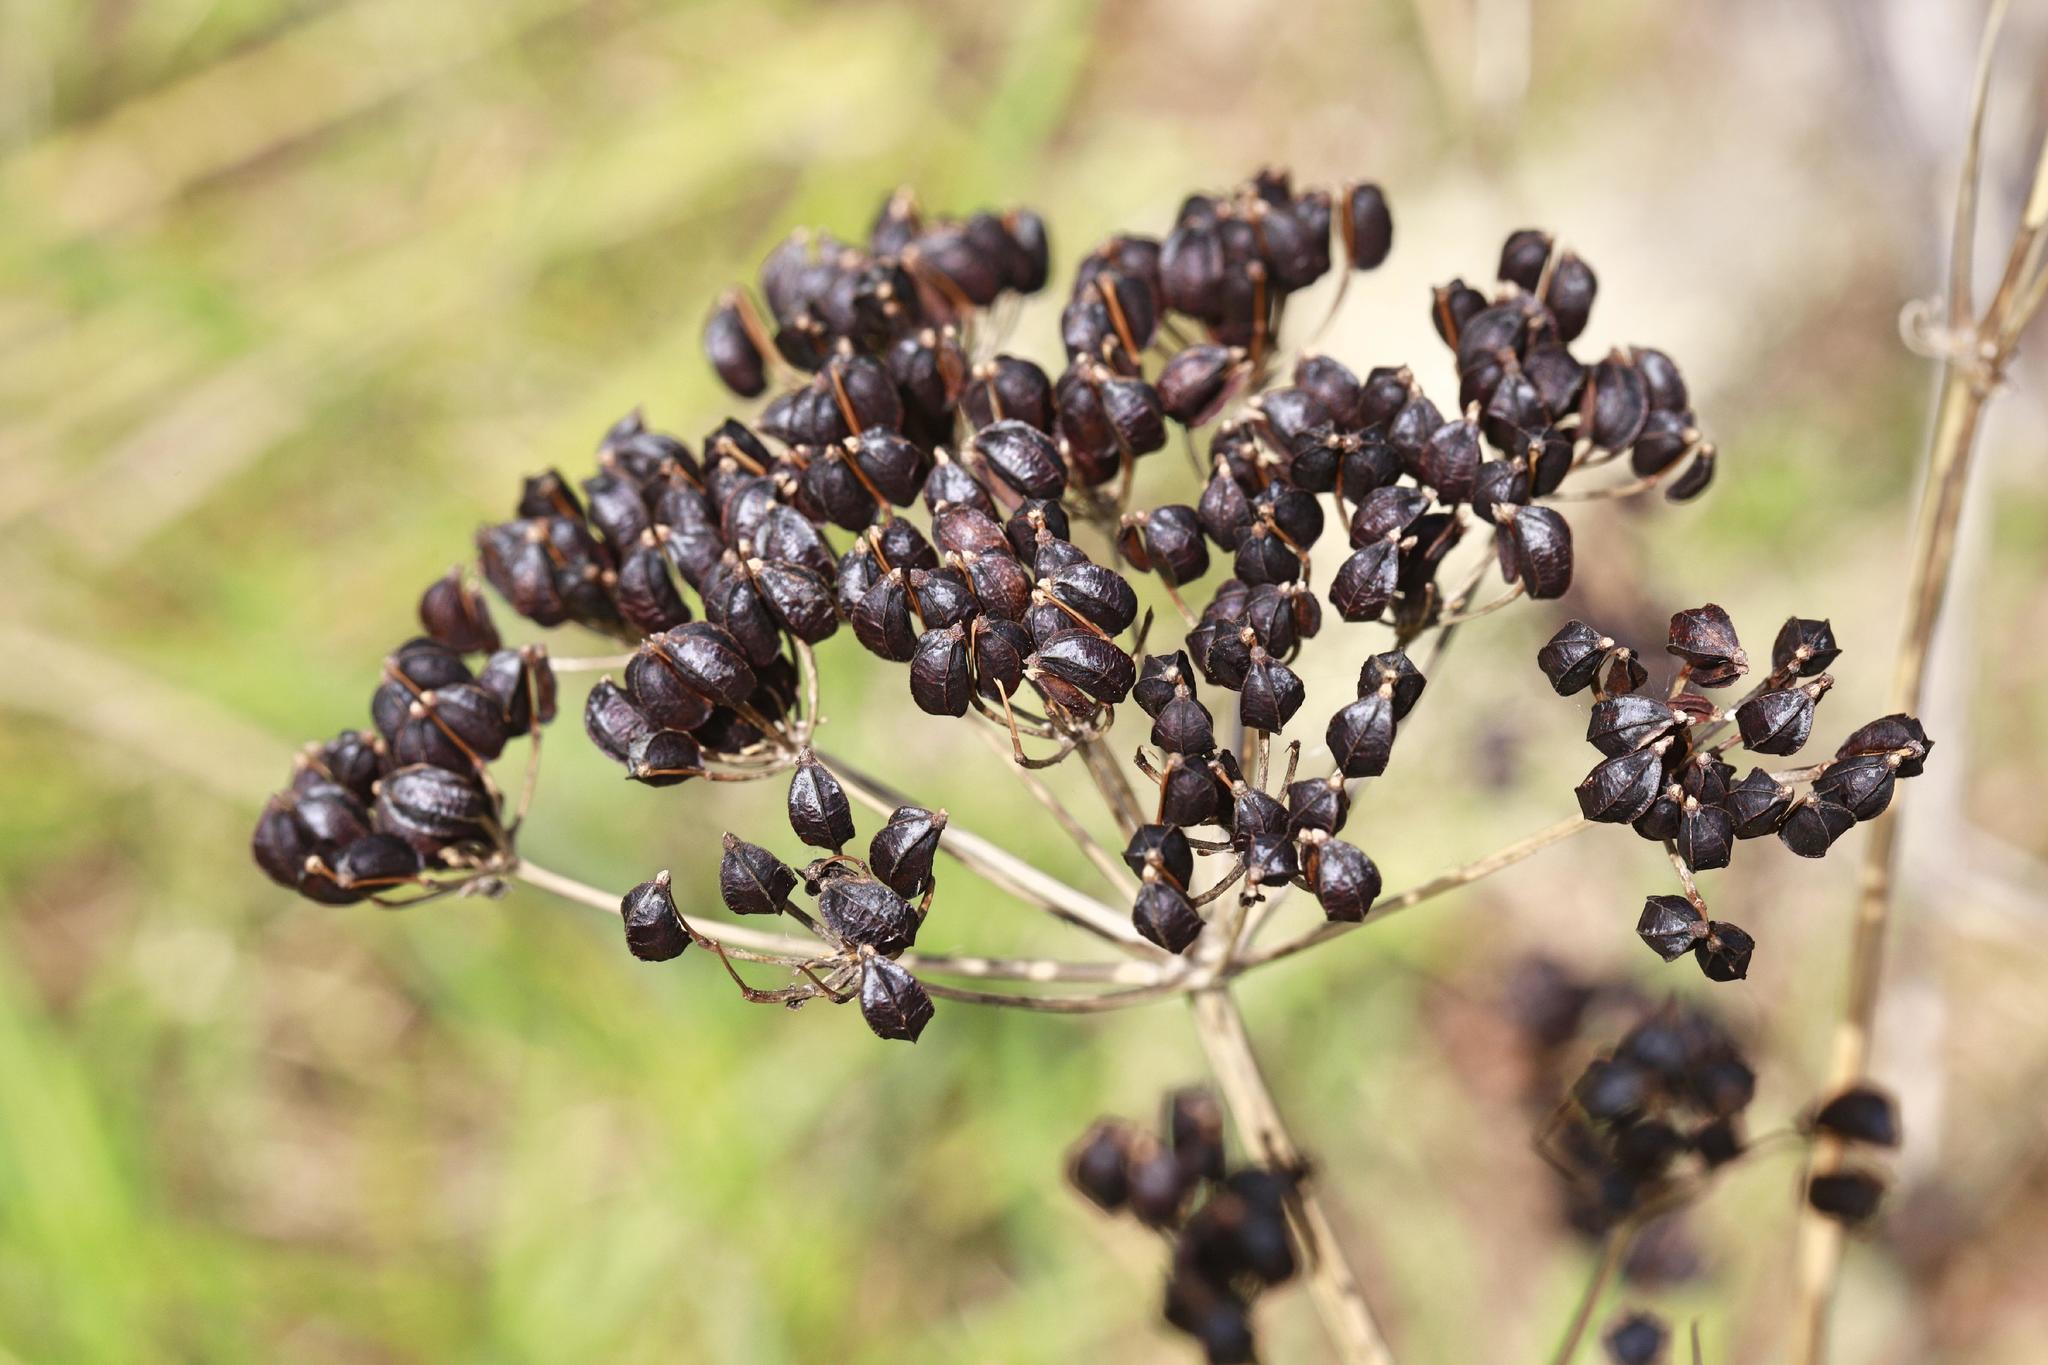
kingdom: Plantae
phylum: Tracheophyta
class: Magnoliopsida
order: Apiales
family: Apiaceae
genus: Pastinaca
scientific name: Pastinaca sativa
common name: Wild parsnip
